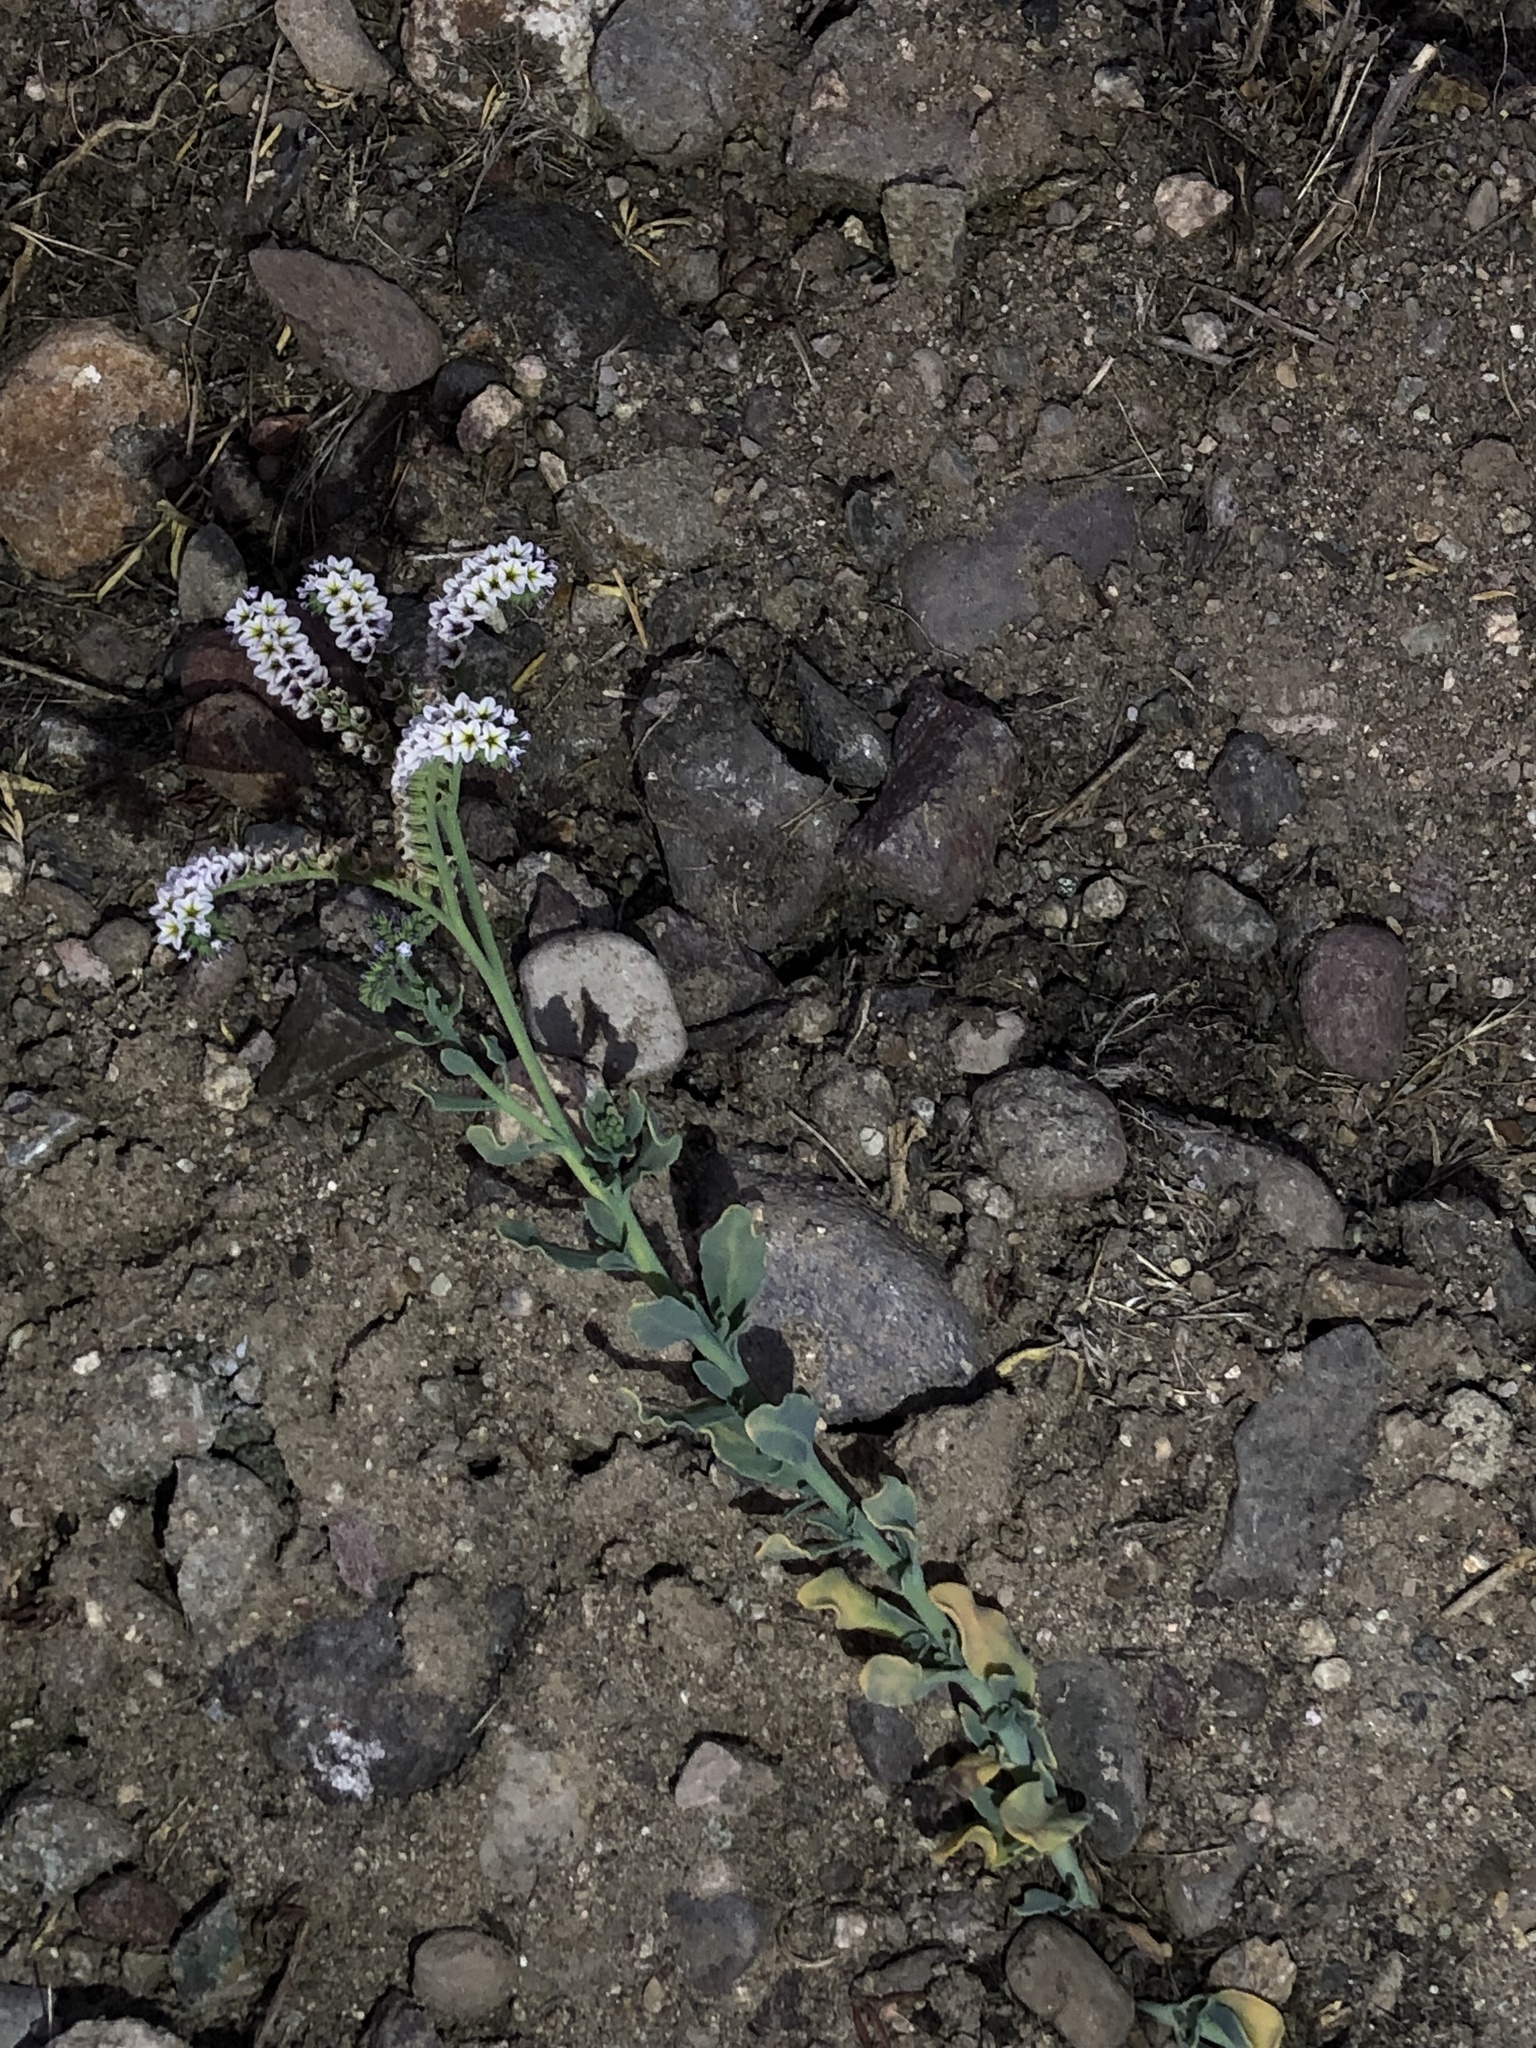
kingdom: Plantae
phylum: Tracheophyta
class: Magnoliopsida
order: Boraginales
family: Heliotropiaceae
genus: Heliotropium
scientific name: Heliotropium curassavicum
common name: Seaside heliotrope
